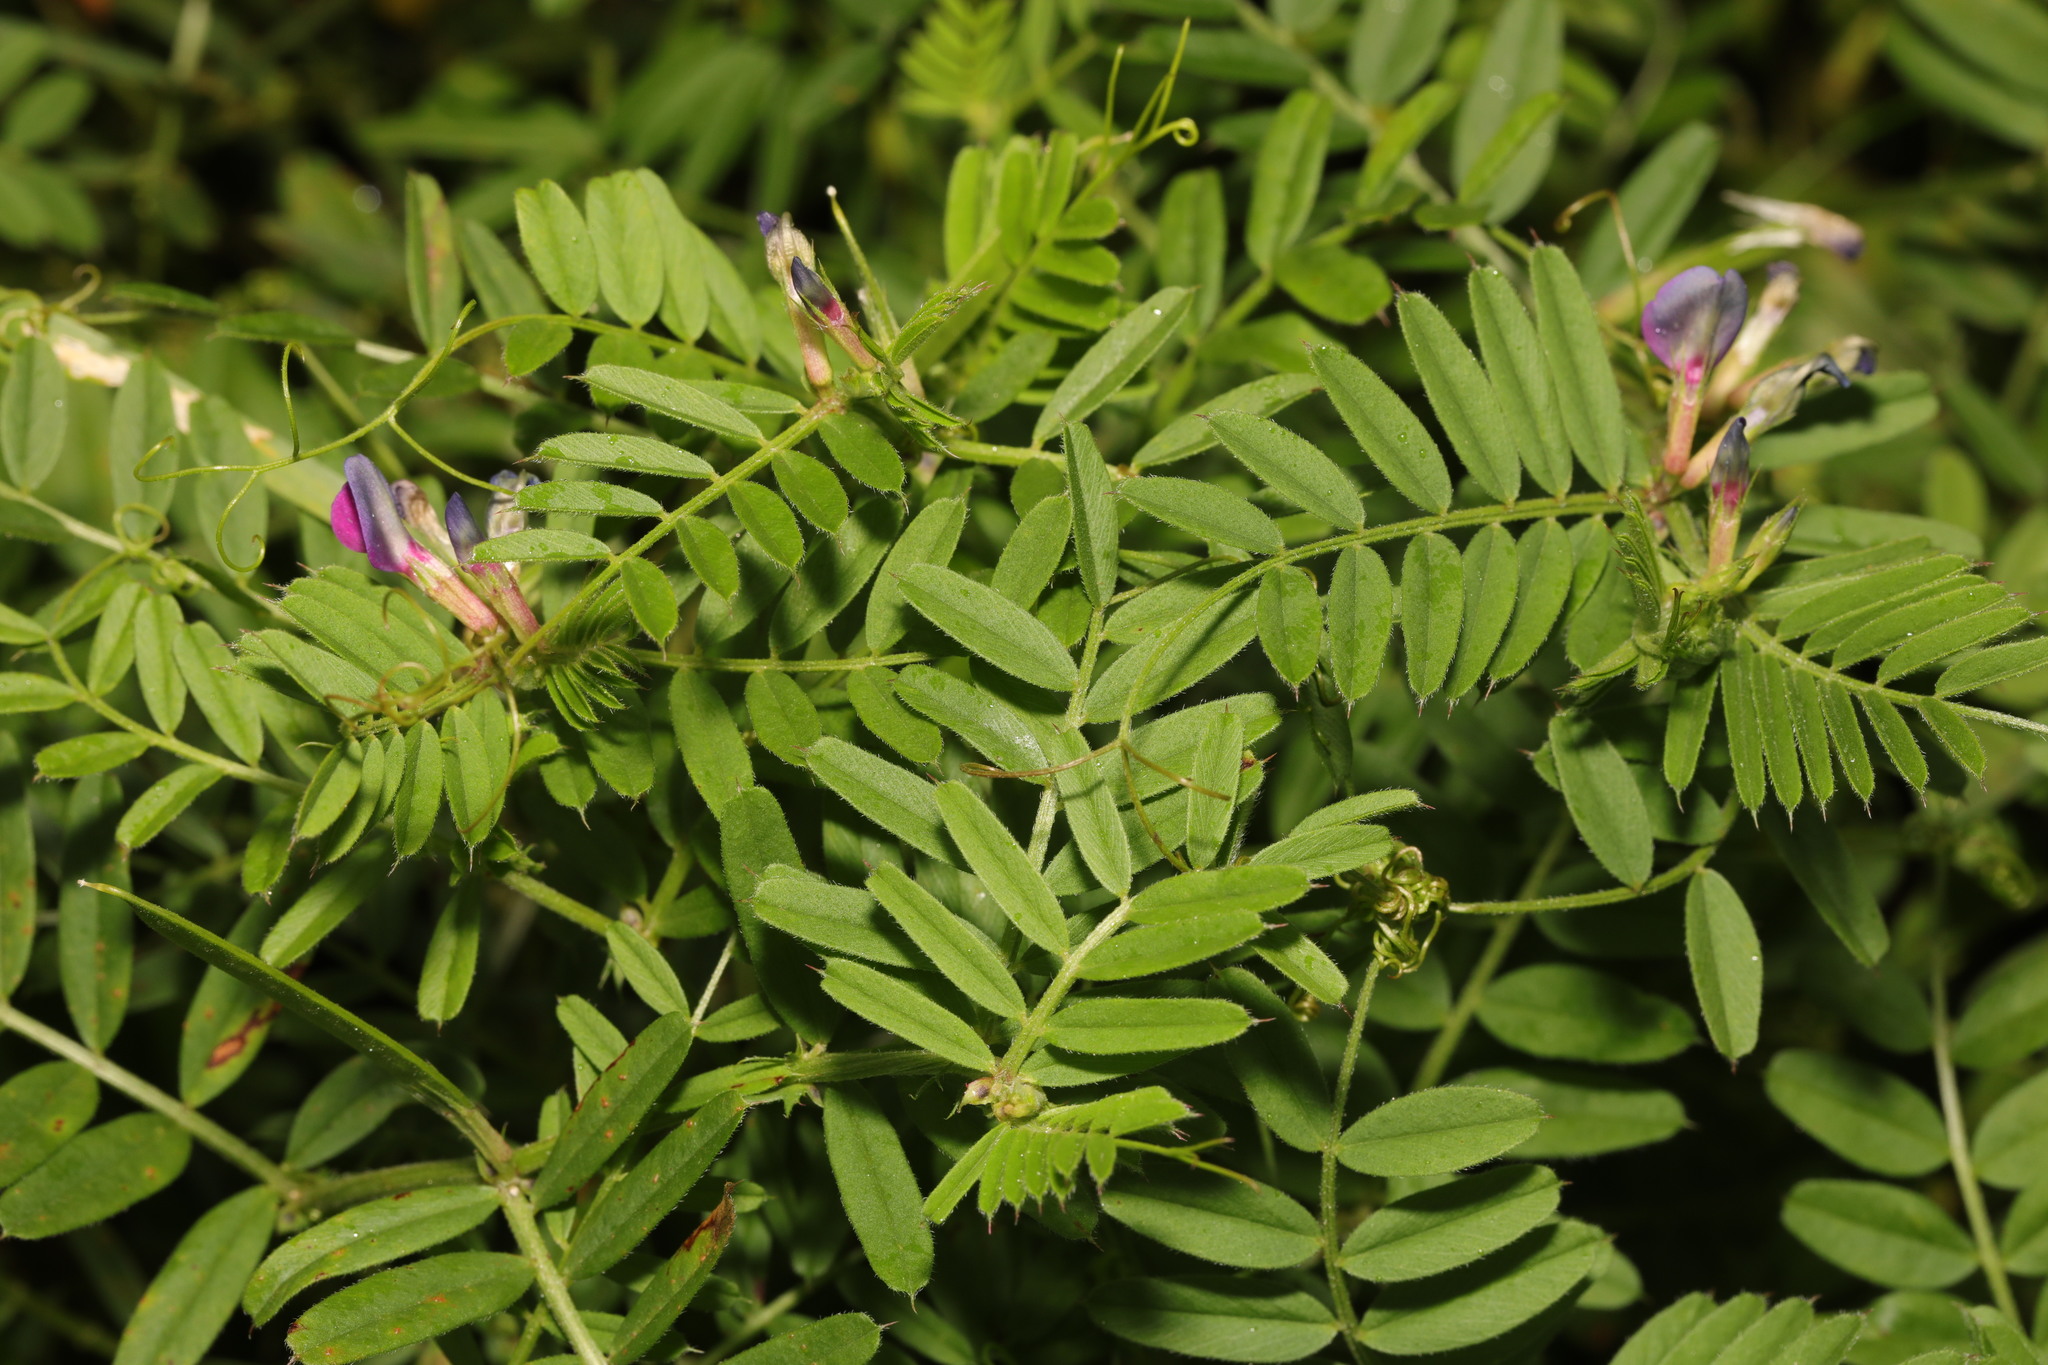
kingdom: Plantae
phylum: Tracheophyta
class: Magnoliopsida
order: Fabales
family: Fabaceae
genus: Vicia
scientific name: Vicia sativa
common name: Garden vetch
